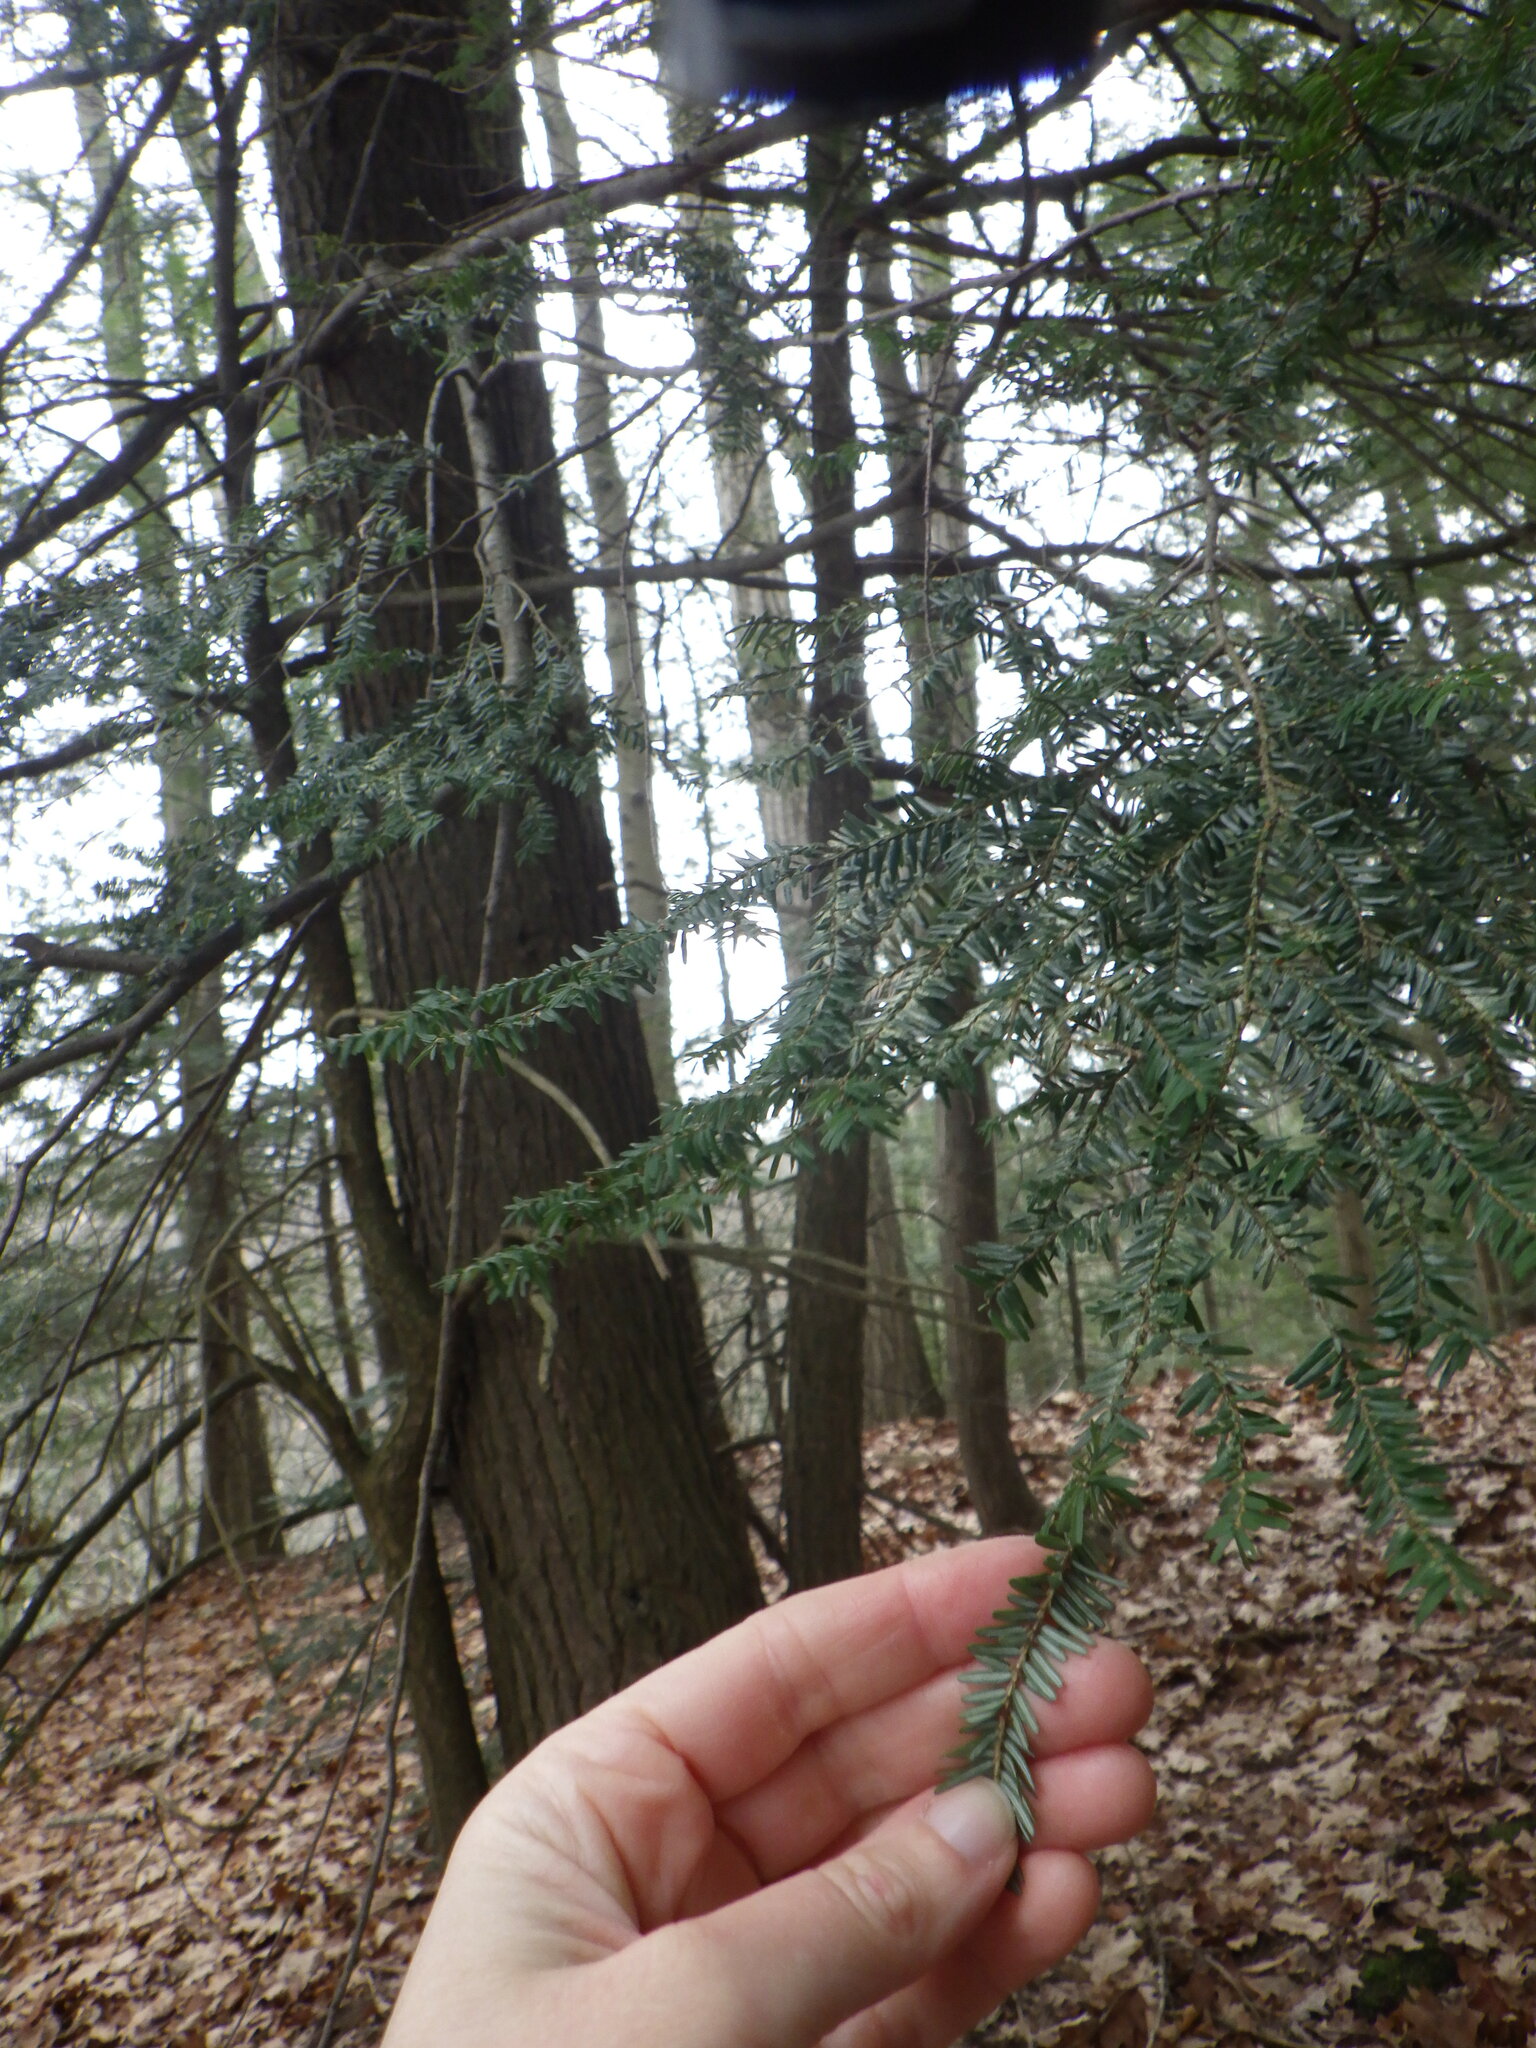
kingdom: Plantae
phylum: Tracheophyta
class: Pinopsida
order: Pinales
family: Pinaceae
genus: Tsuga
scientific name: Tsuga canadensis
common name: Eastern hemlock
